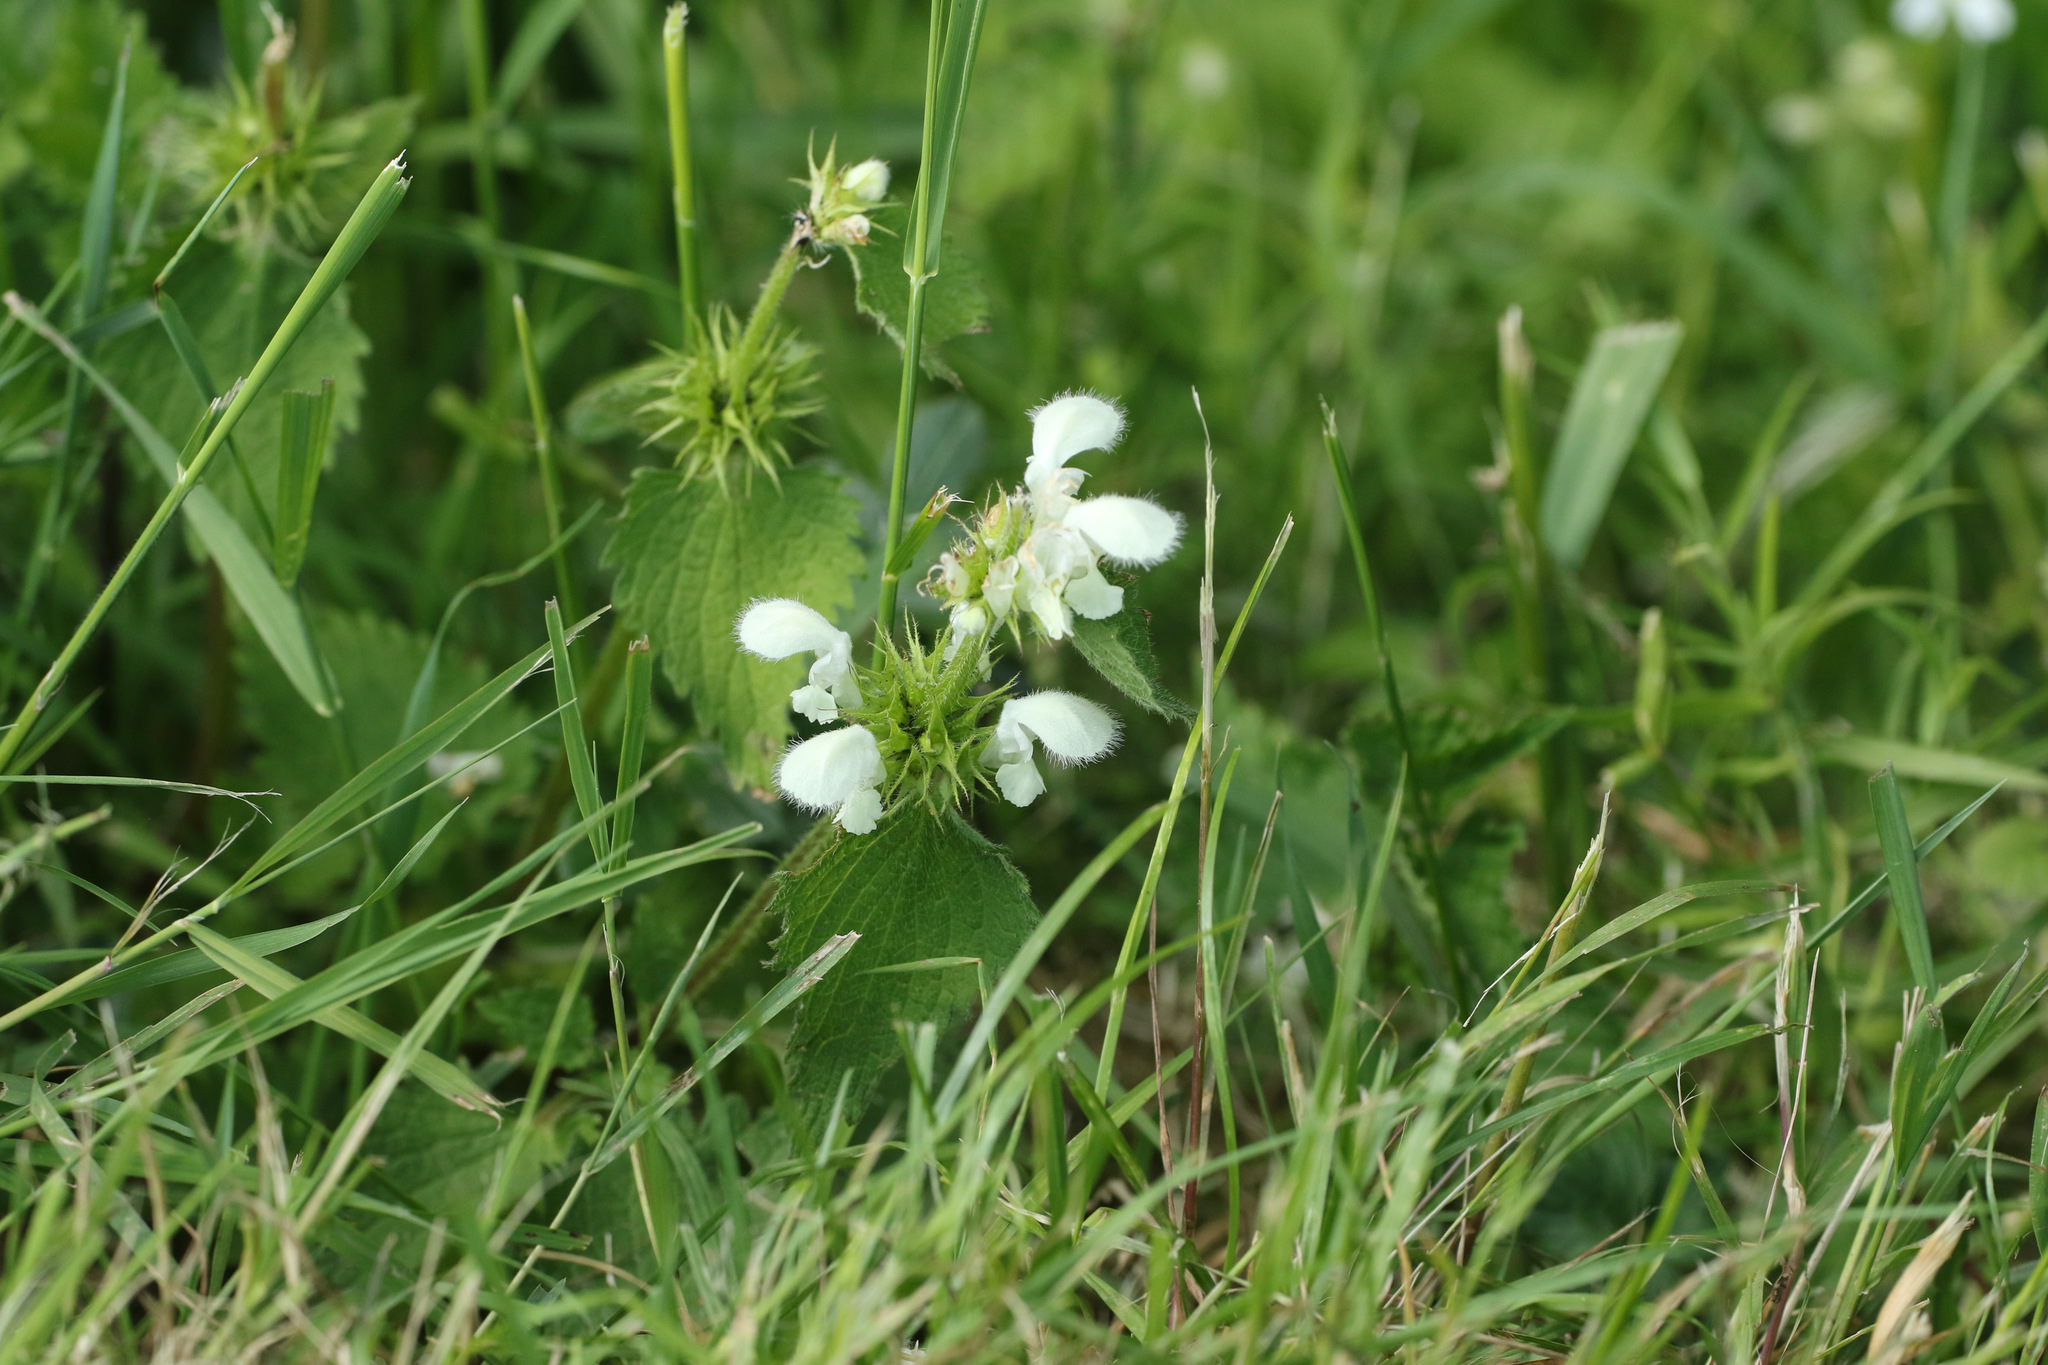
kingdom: Plantae
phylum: Tracheophyta
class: Magnoliopsida
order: Lamiales
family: Lamiaceae
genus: Lamium
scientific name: Lamium album
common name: White dead-nettle
